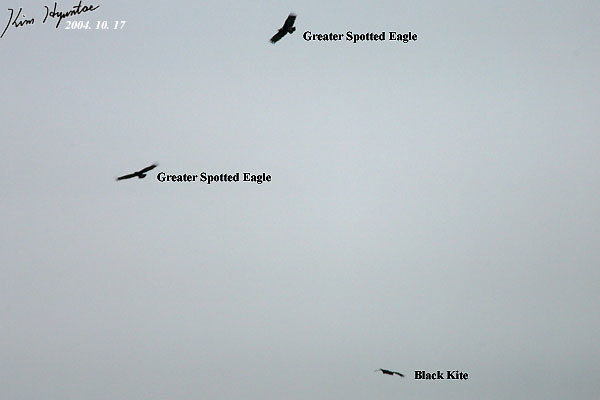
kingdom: Animalia
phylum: Chordata
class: Aves
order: Accipitriformes
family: Accipitridae
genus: Aquila
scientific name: Aquila clanga
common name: Greater spotted eagle
